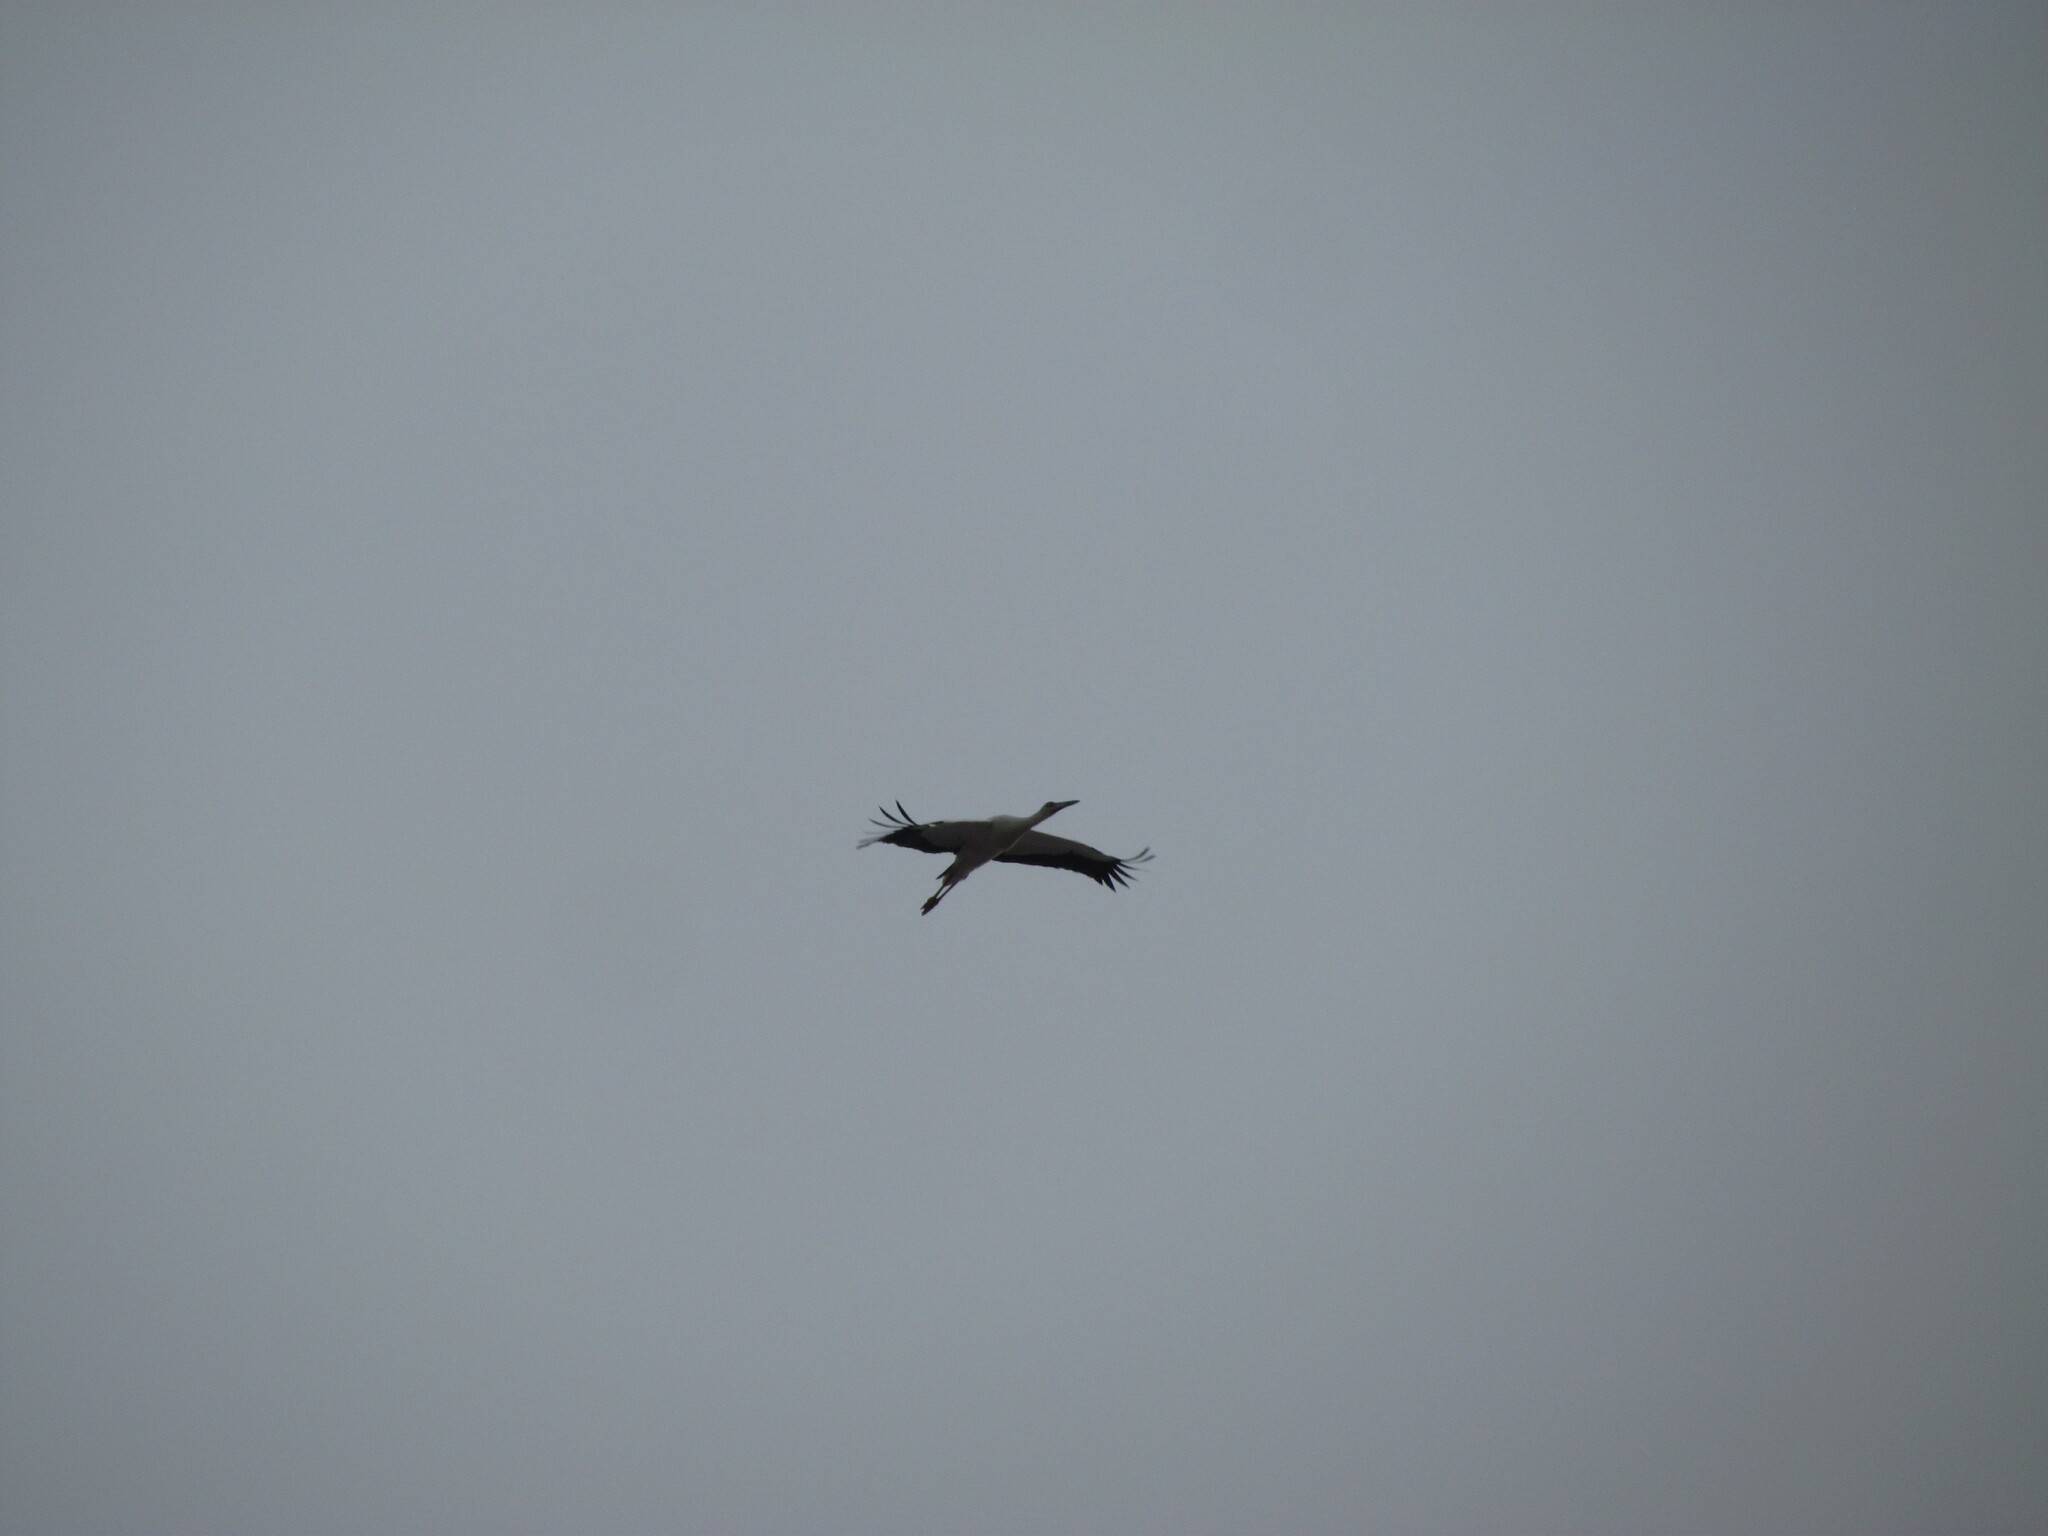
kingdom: Animalia
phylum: Chordata
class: Aves
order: Ciconiiformes
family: Ciconiidae
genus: Ciconia
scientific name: Ciconia maguari
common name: Maguari stork
